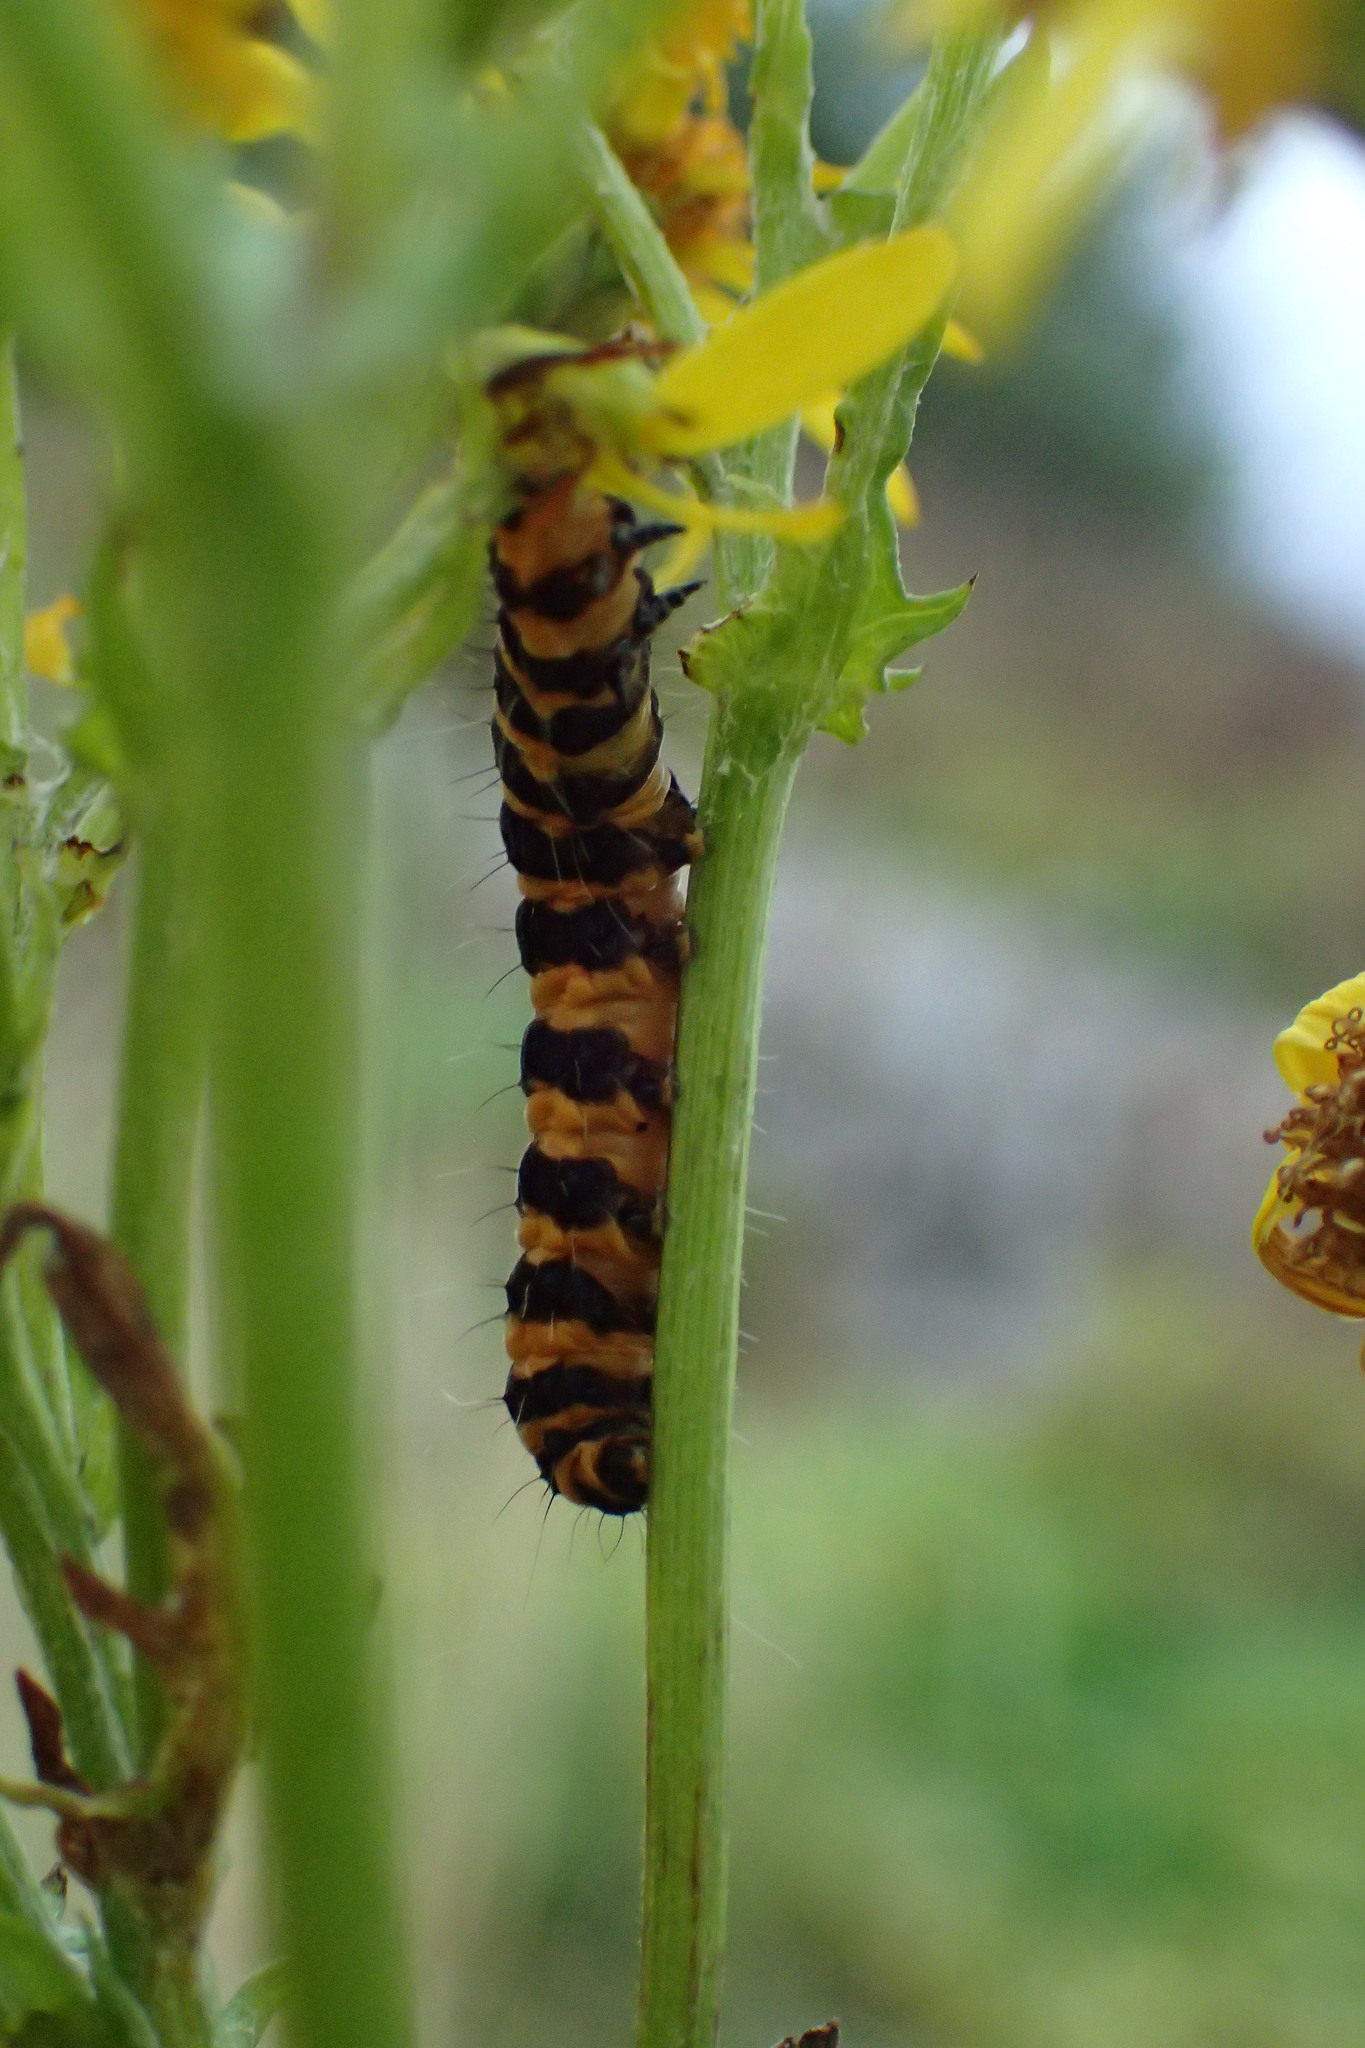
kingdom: Animalia
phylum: Arthropoda
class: Insecta
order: Lepidoptera
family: Erebidae
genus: Tyria
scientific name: Tyria jacobaeae
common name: Cinnabar
